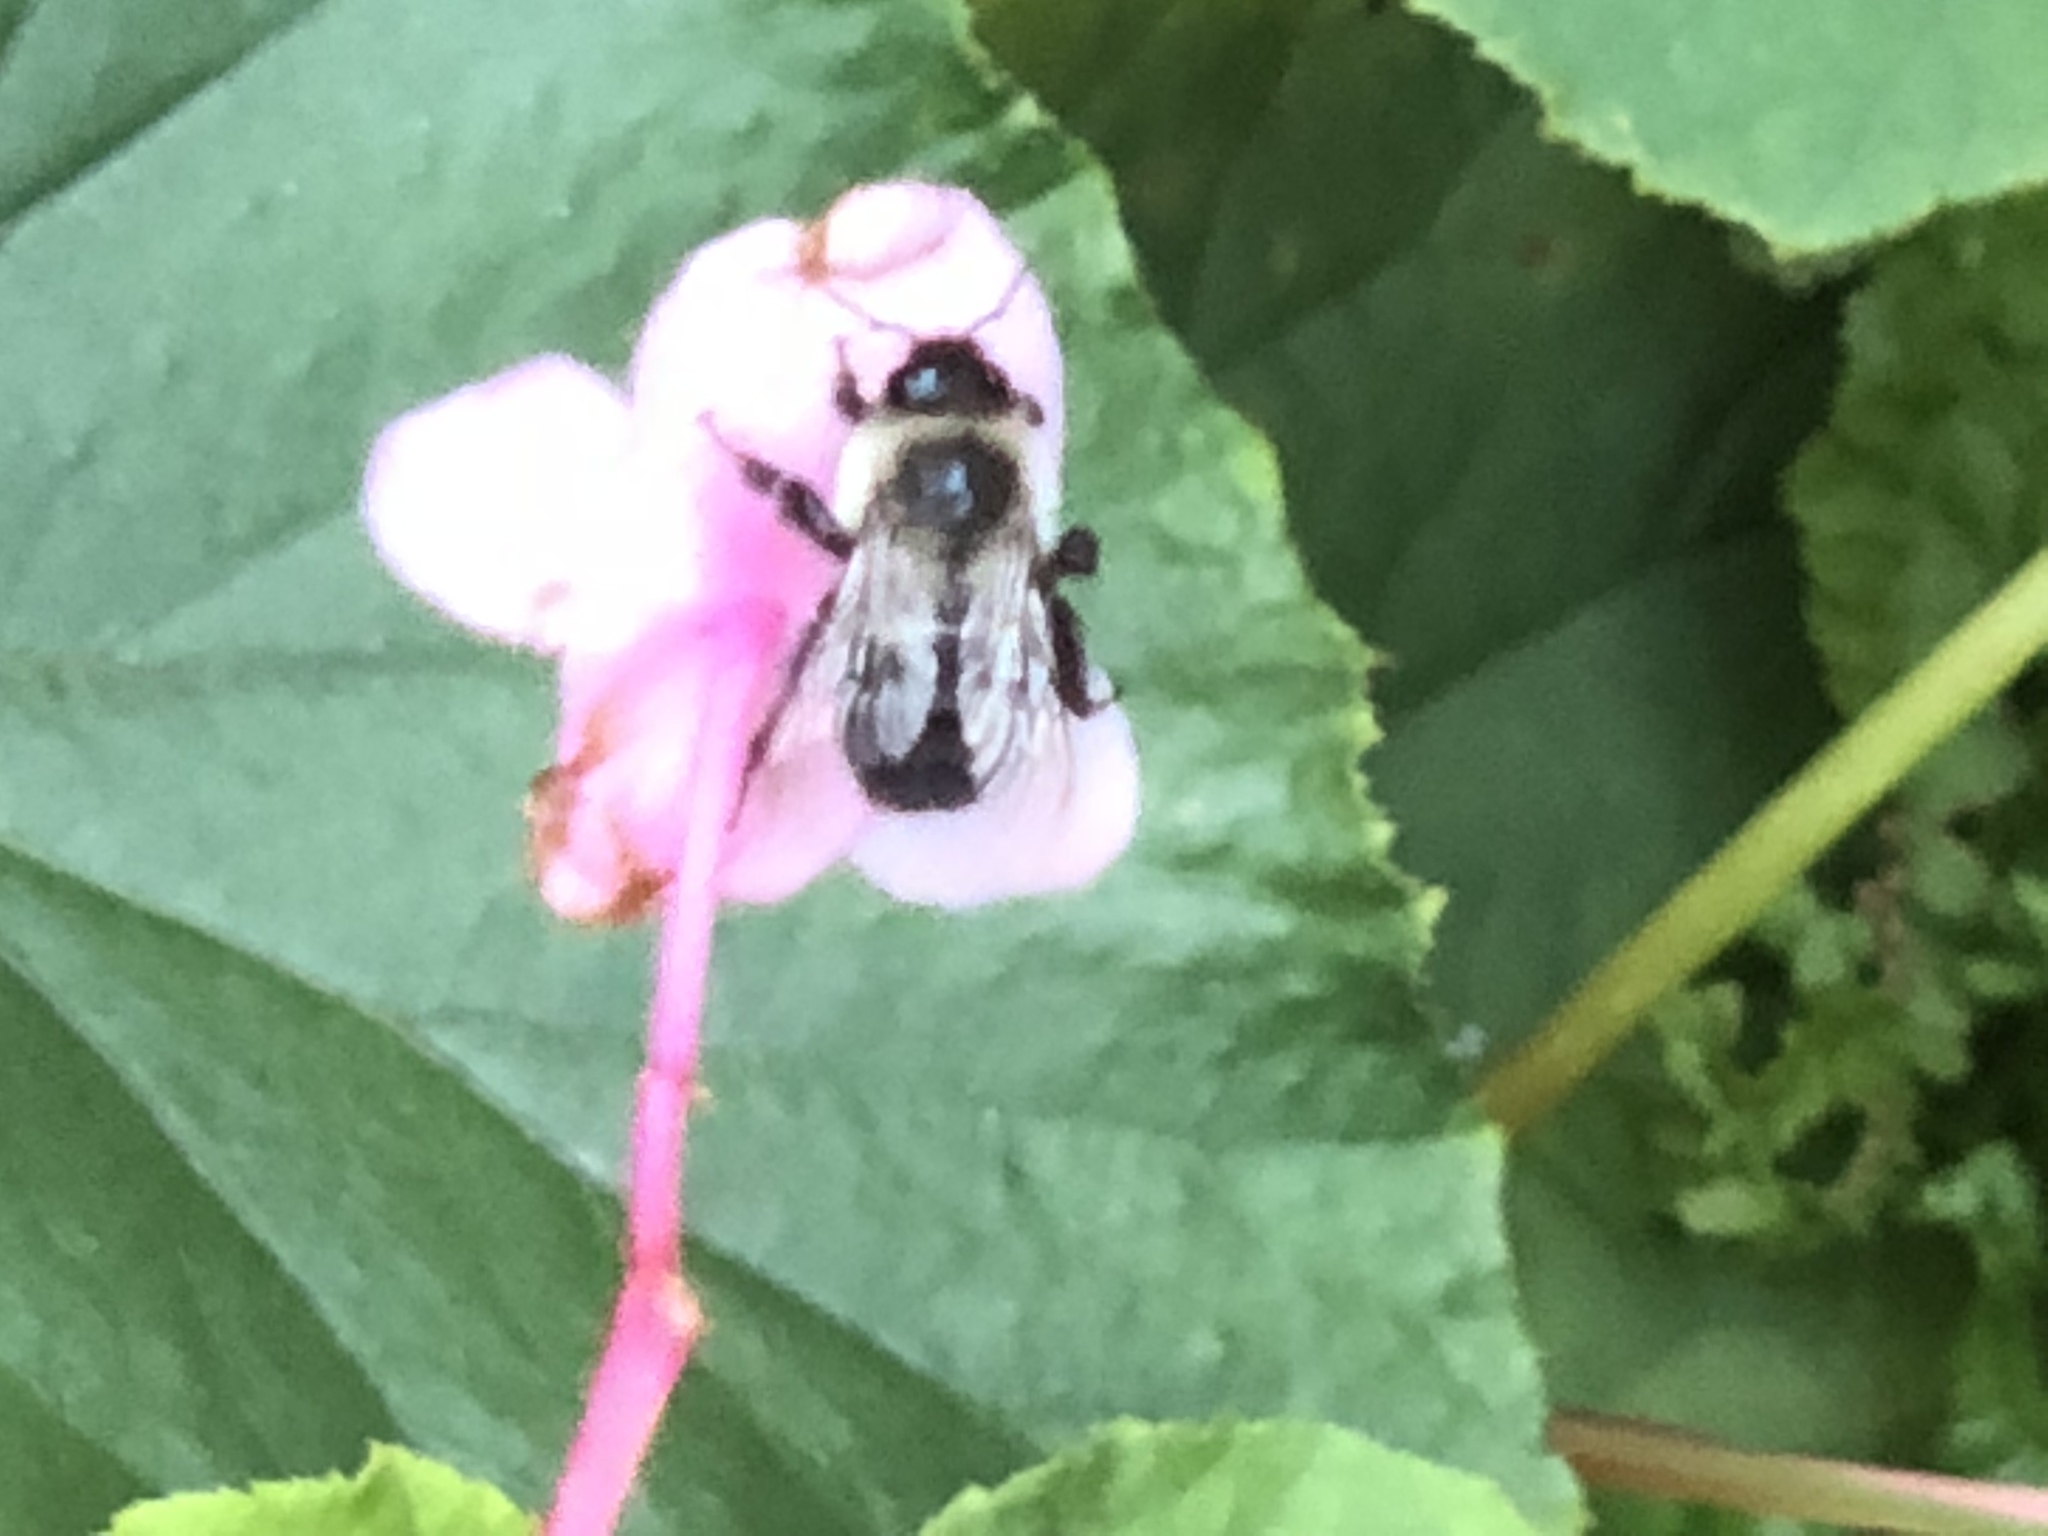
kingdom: Animalia
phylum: Arthropoda
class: Insecta
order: Hymenoptera
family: Apidae
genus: Bombus
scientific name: Bombus impatiens
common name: Common eastern bumble bee
